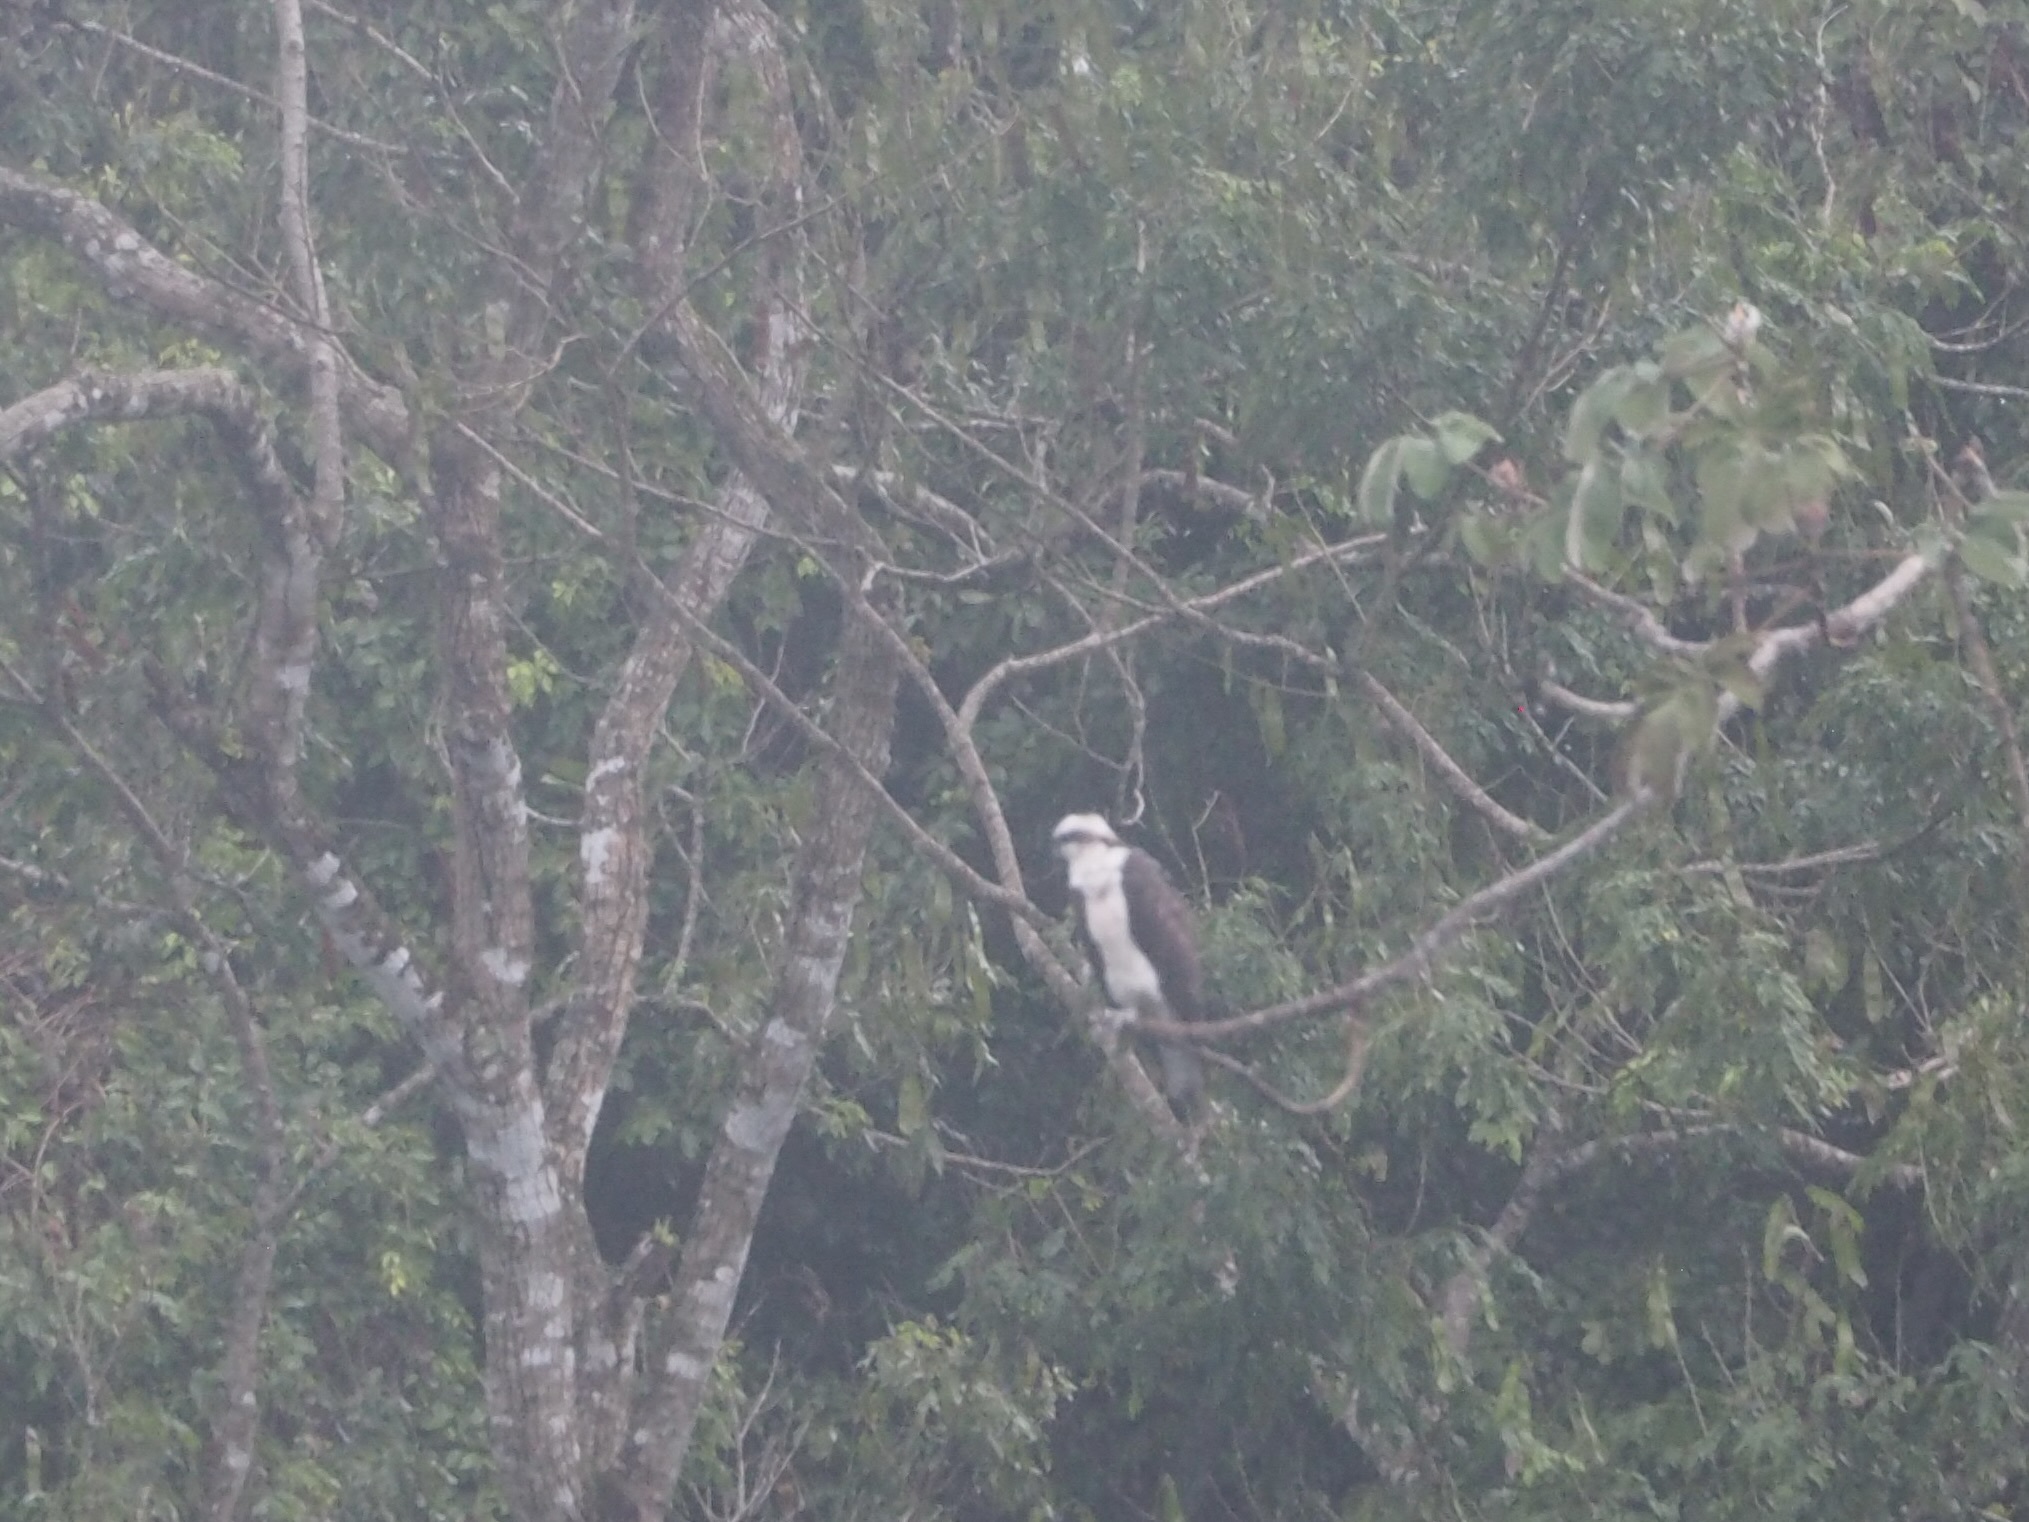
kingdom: Animalia
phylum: Chordata
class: Aves
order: Accipitriformes
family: Pandionidae
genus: Pandion
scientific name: Pandion haliaetus
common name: Osprey
